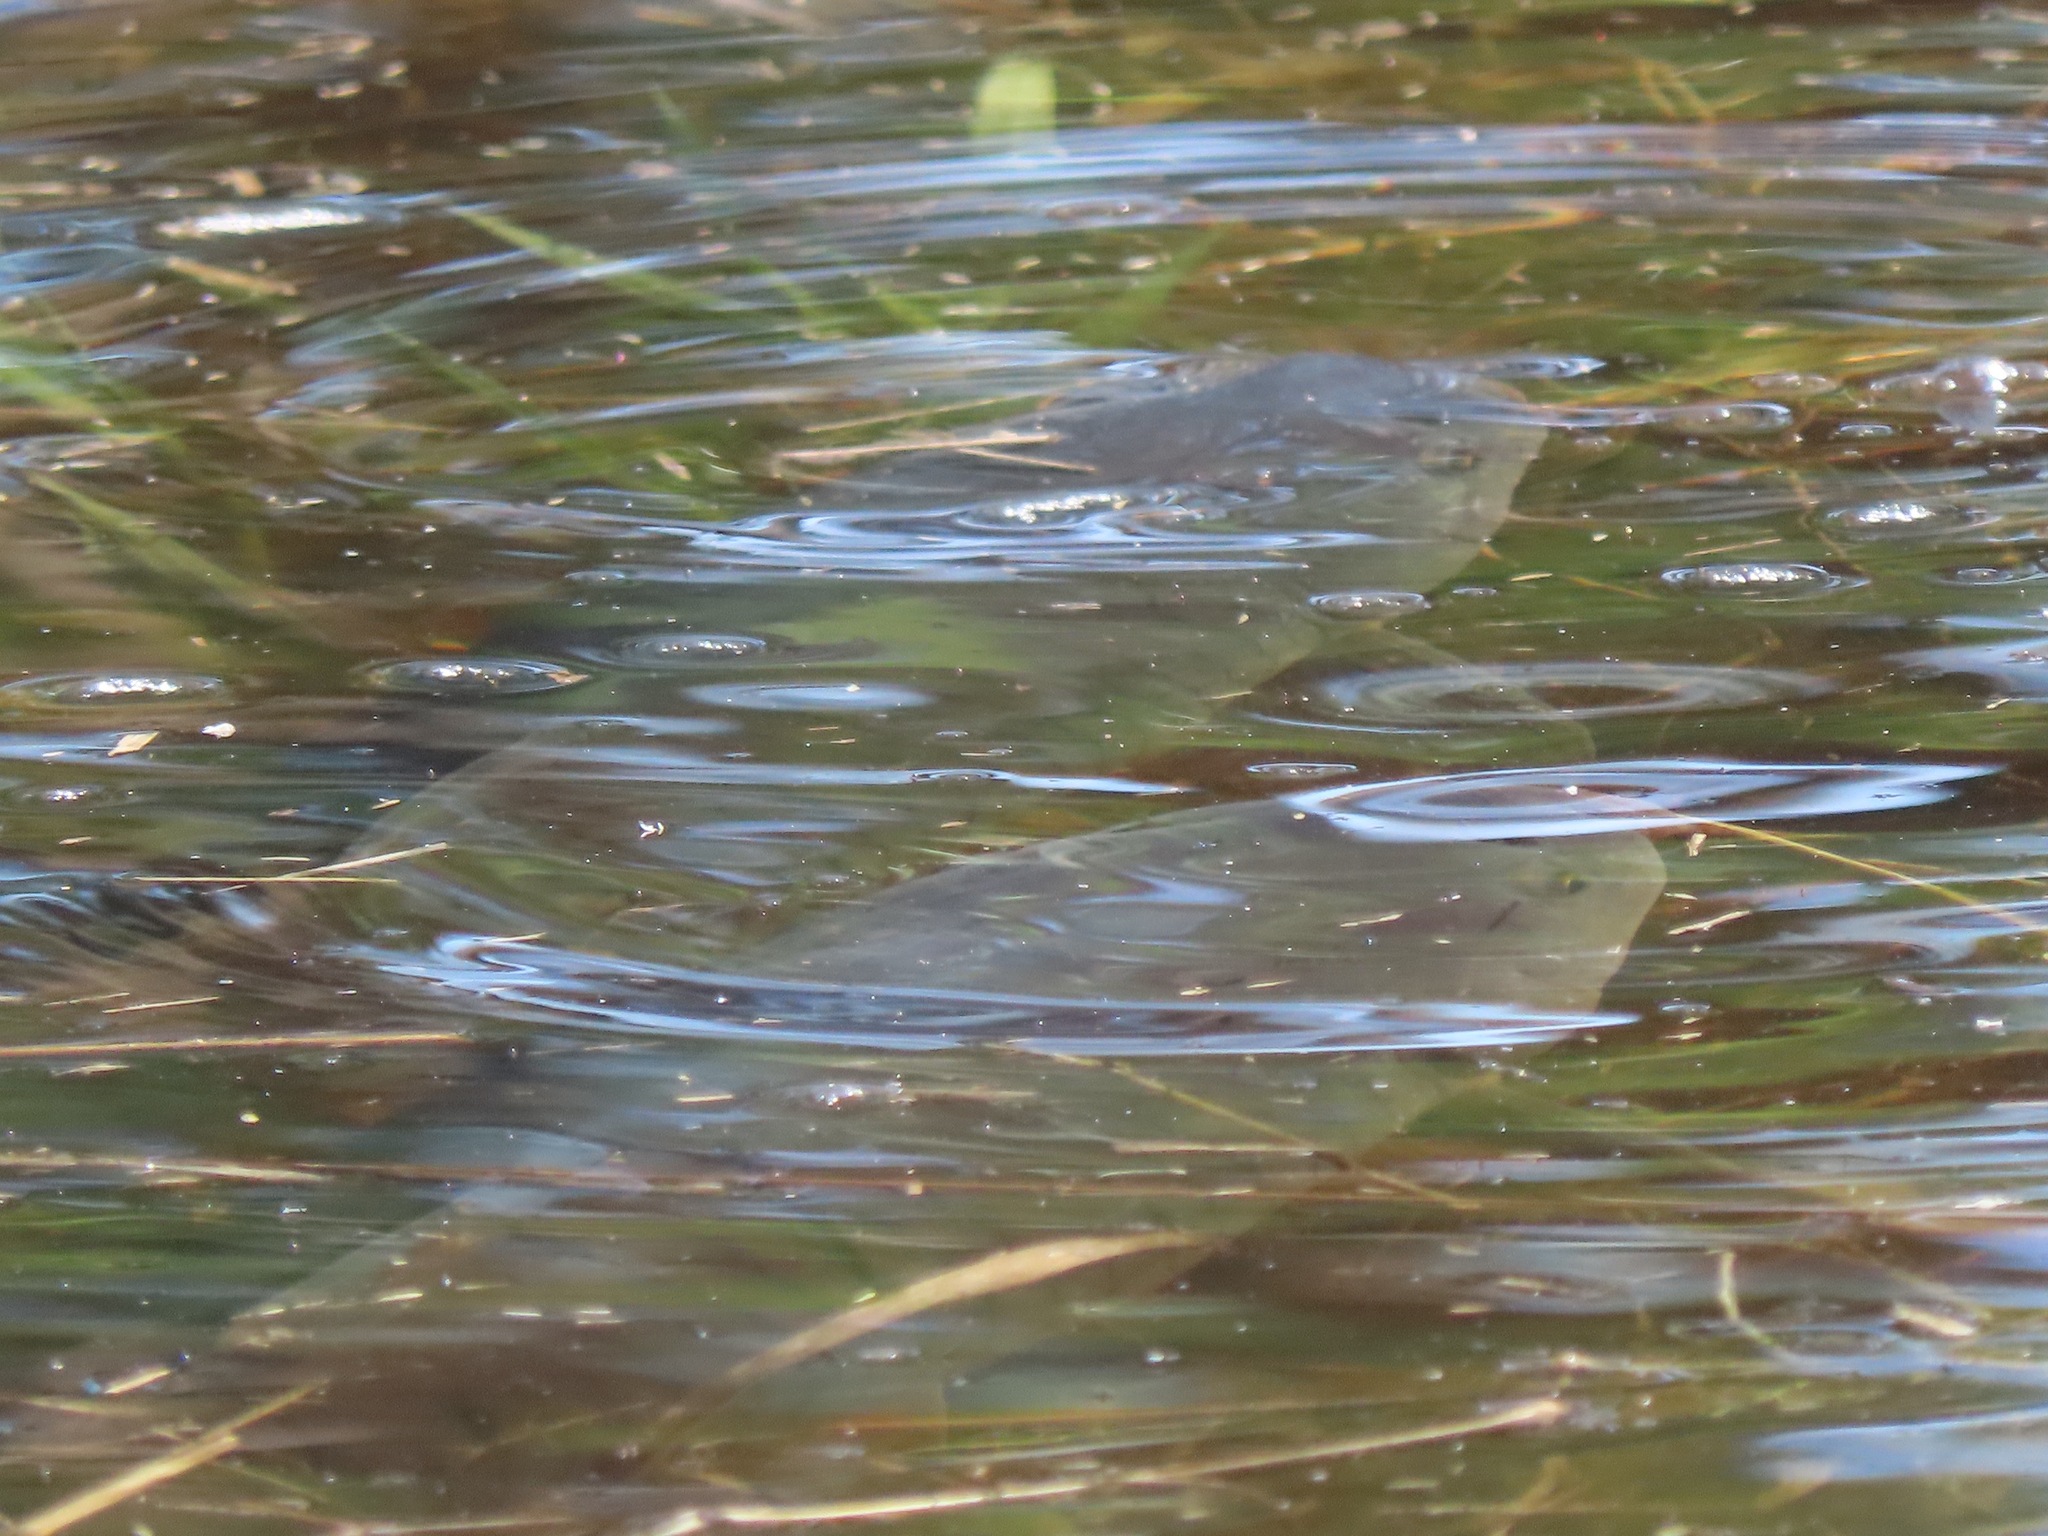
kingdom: Animalia
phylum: Chordata
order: Cypriniformes
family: Cyprinidae
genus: Cyprinus
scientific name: Cyprinus carpio
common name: Common carp
